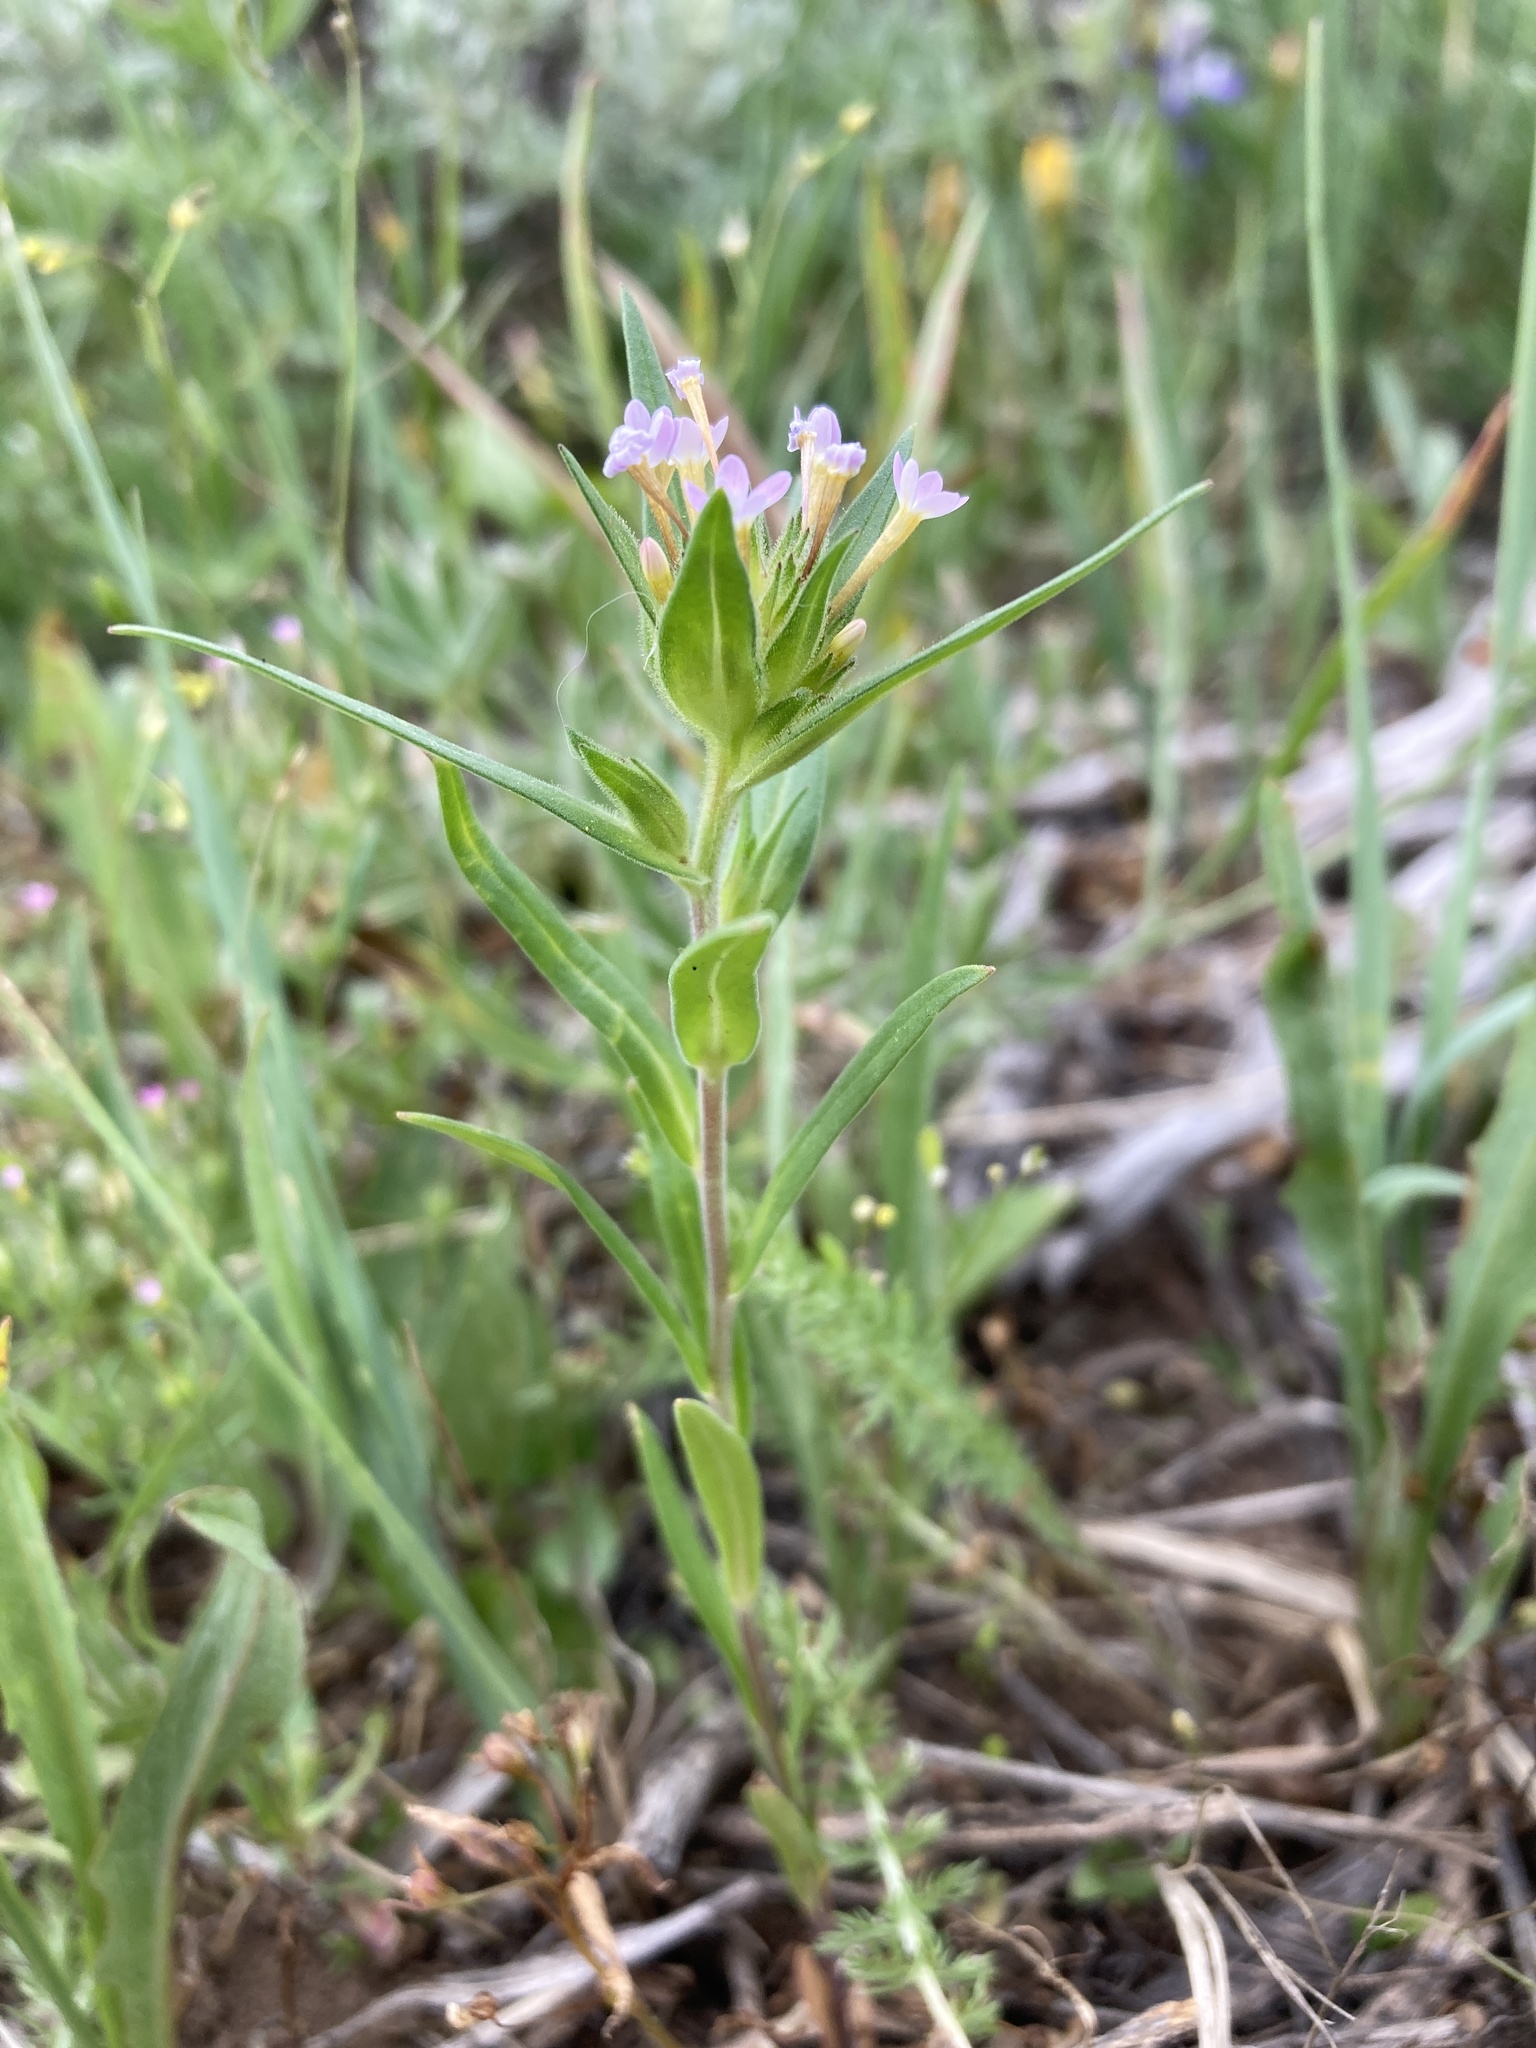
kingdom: Plantae
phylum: Tracheophyta
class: Magnoliopsida
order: Ericales
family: Polemoniaceae
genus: Collomia
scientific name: Collomia linearis
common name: Tiny trumpet
